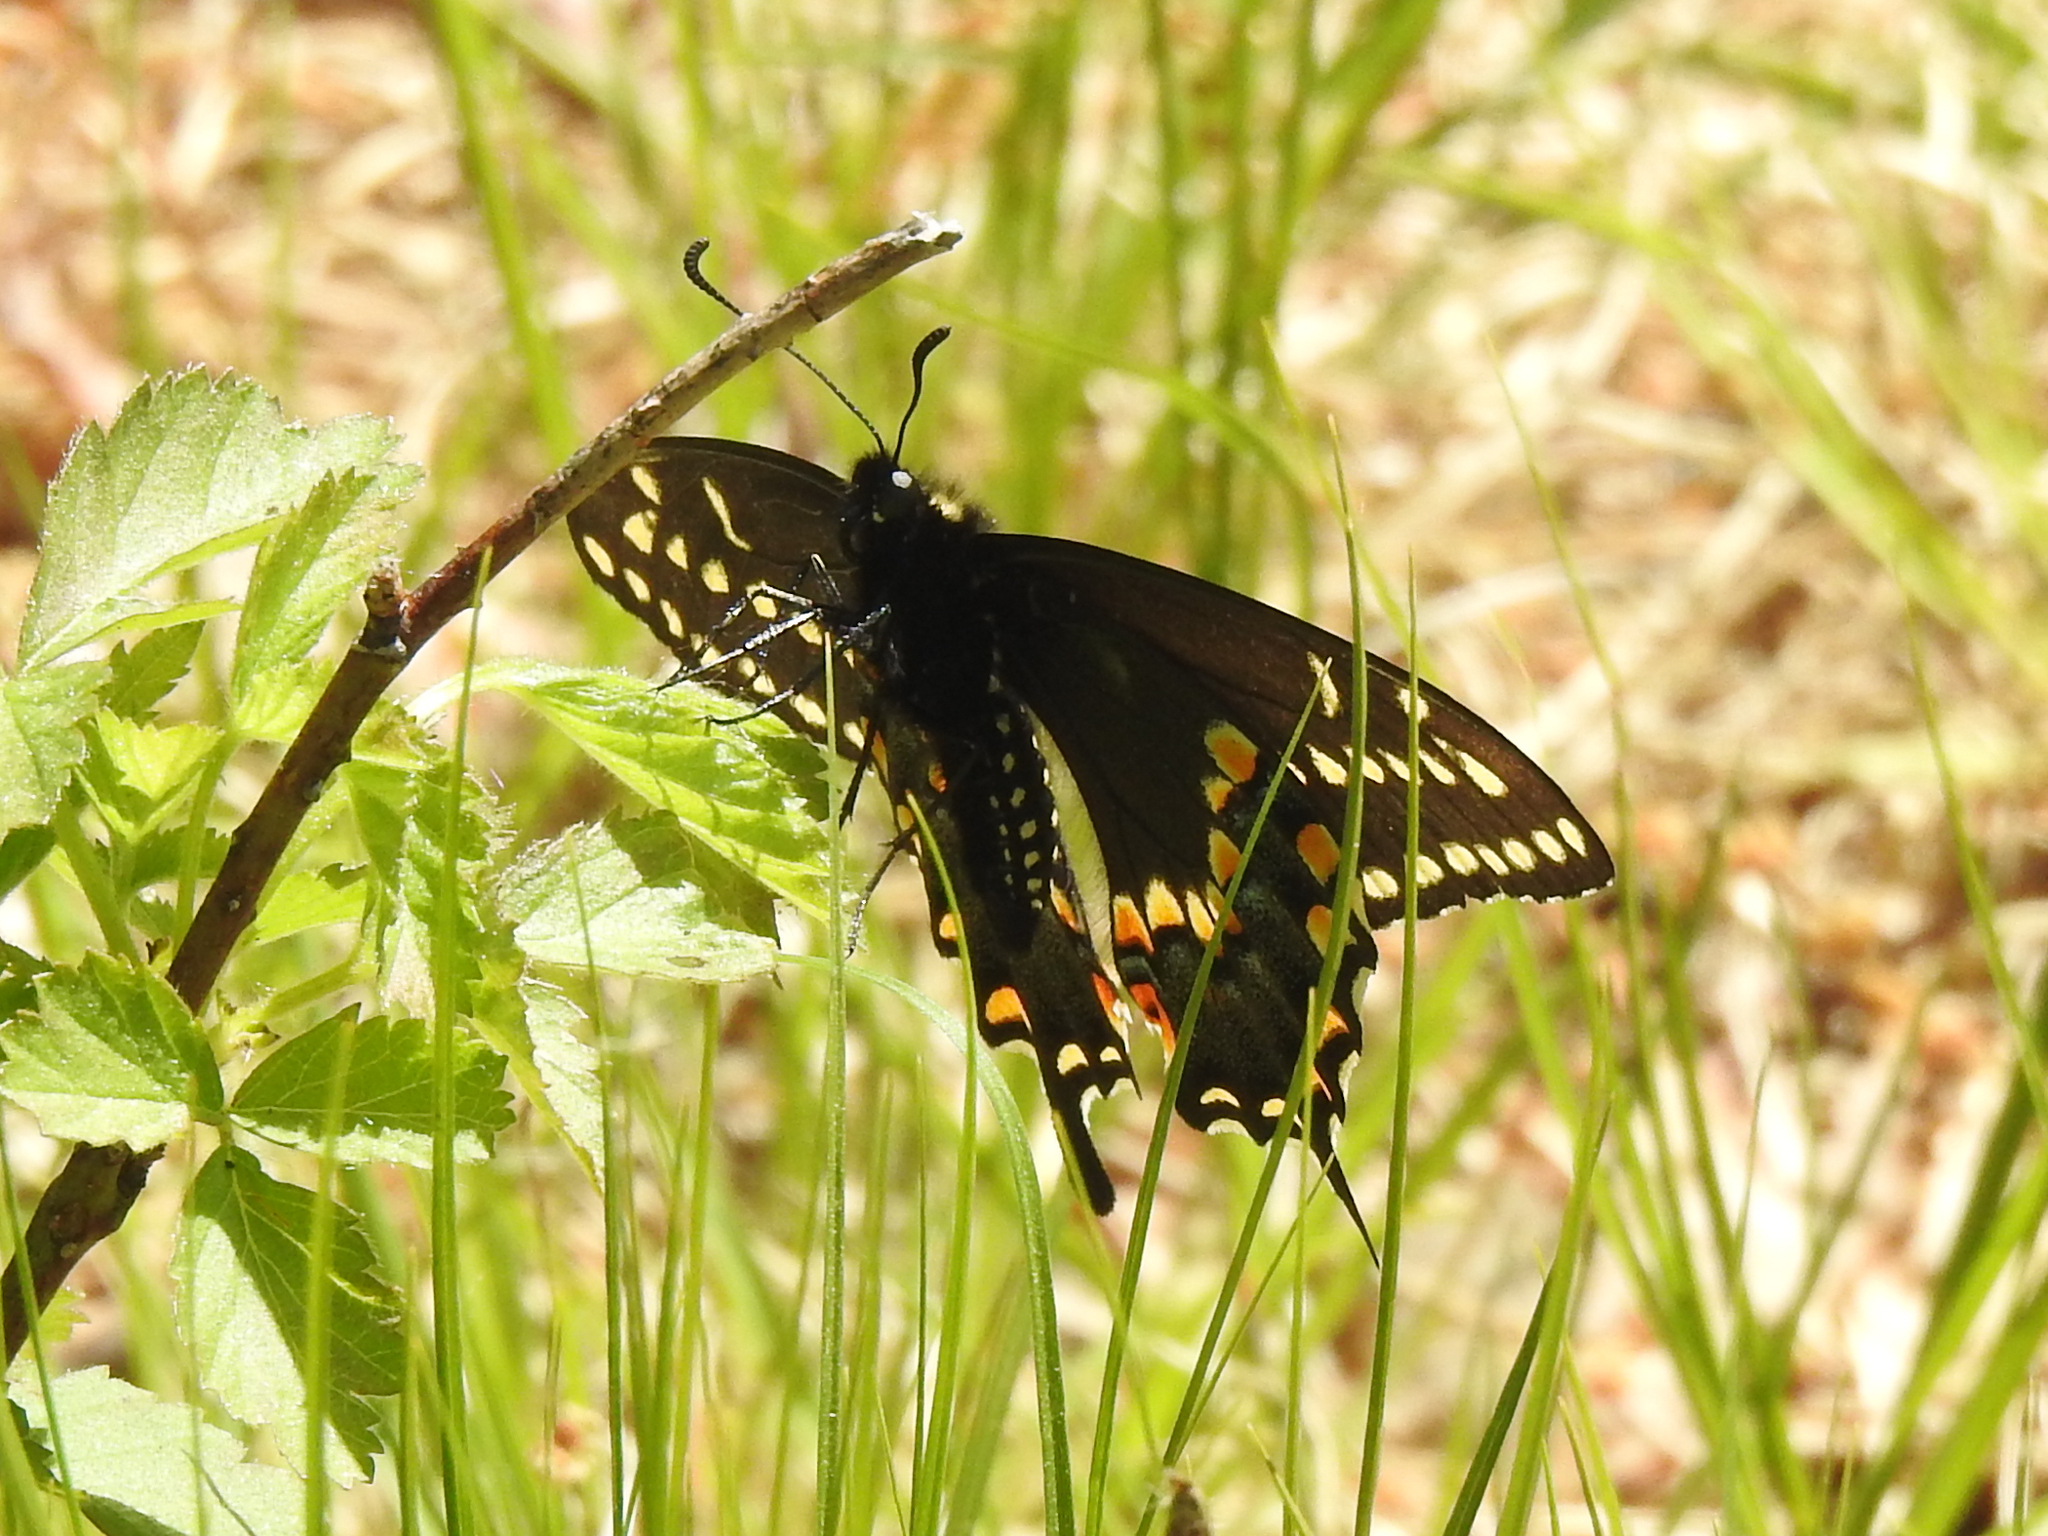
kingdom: Animalia
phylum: Arthropoda
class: Insecta
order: Lepidoptera
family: Papilionidae
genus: Papilio
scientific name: Papilio polyxenes
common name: Black swallowtail
